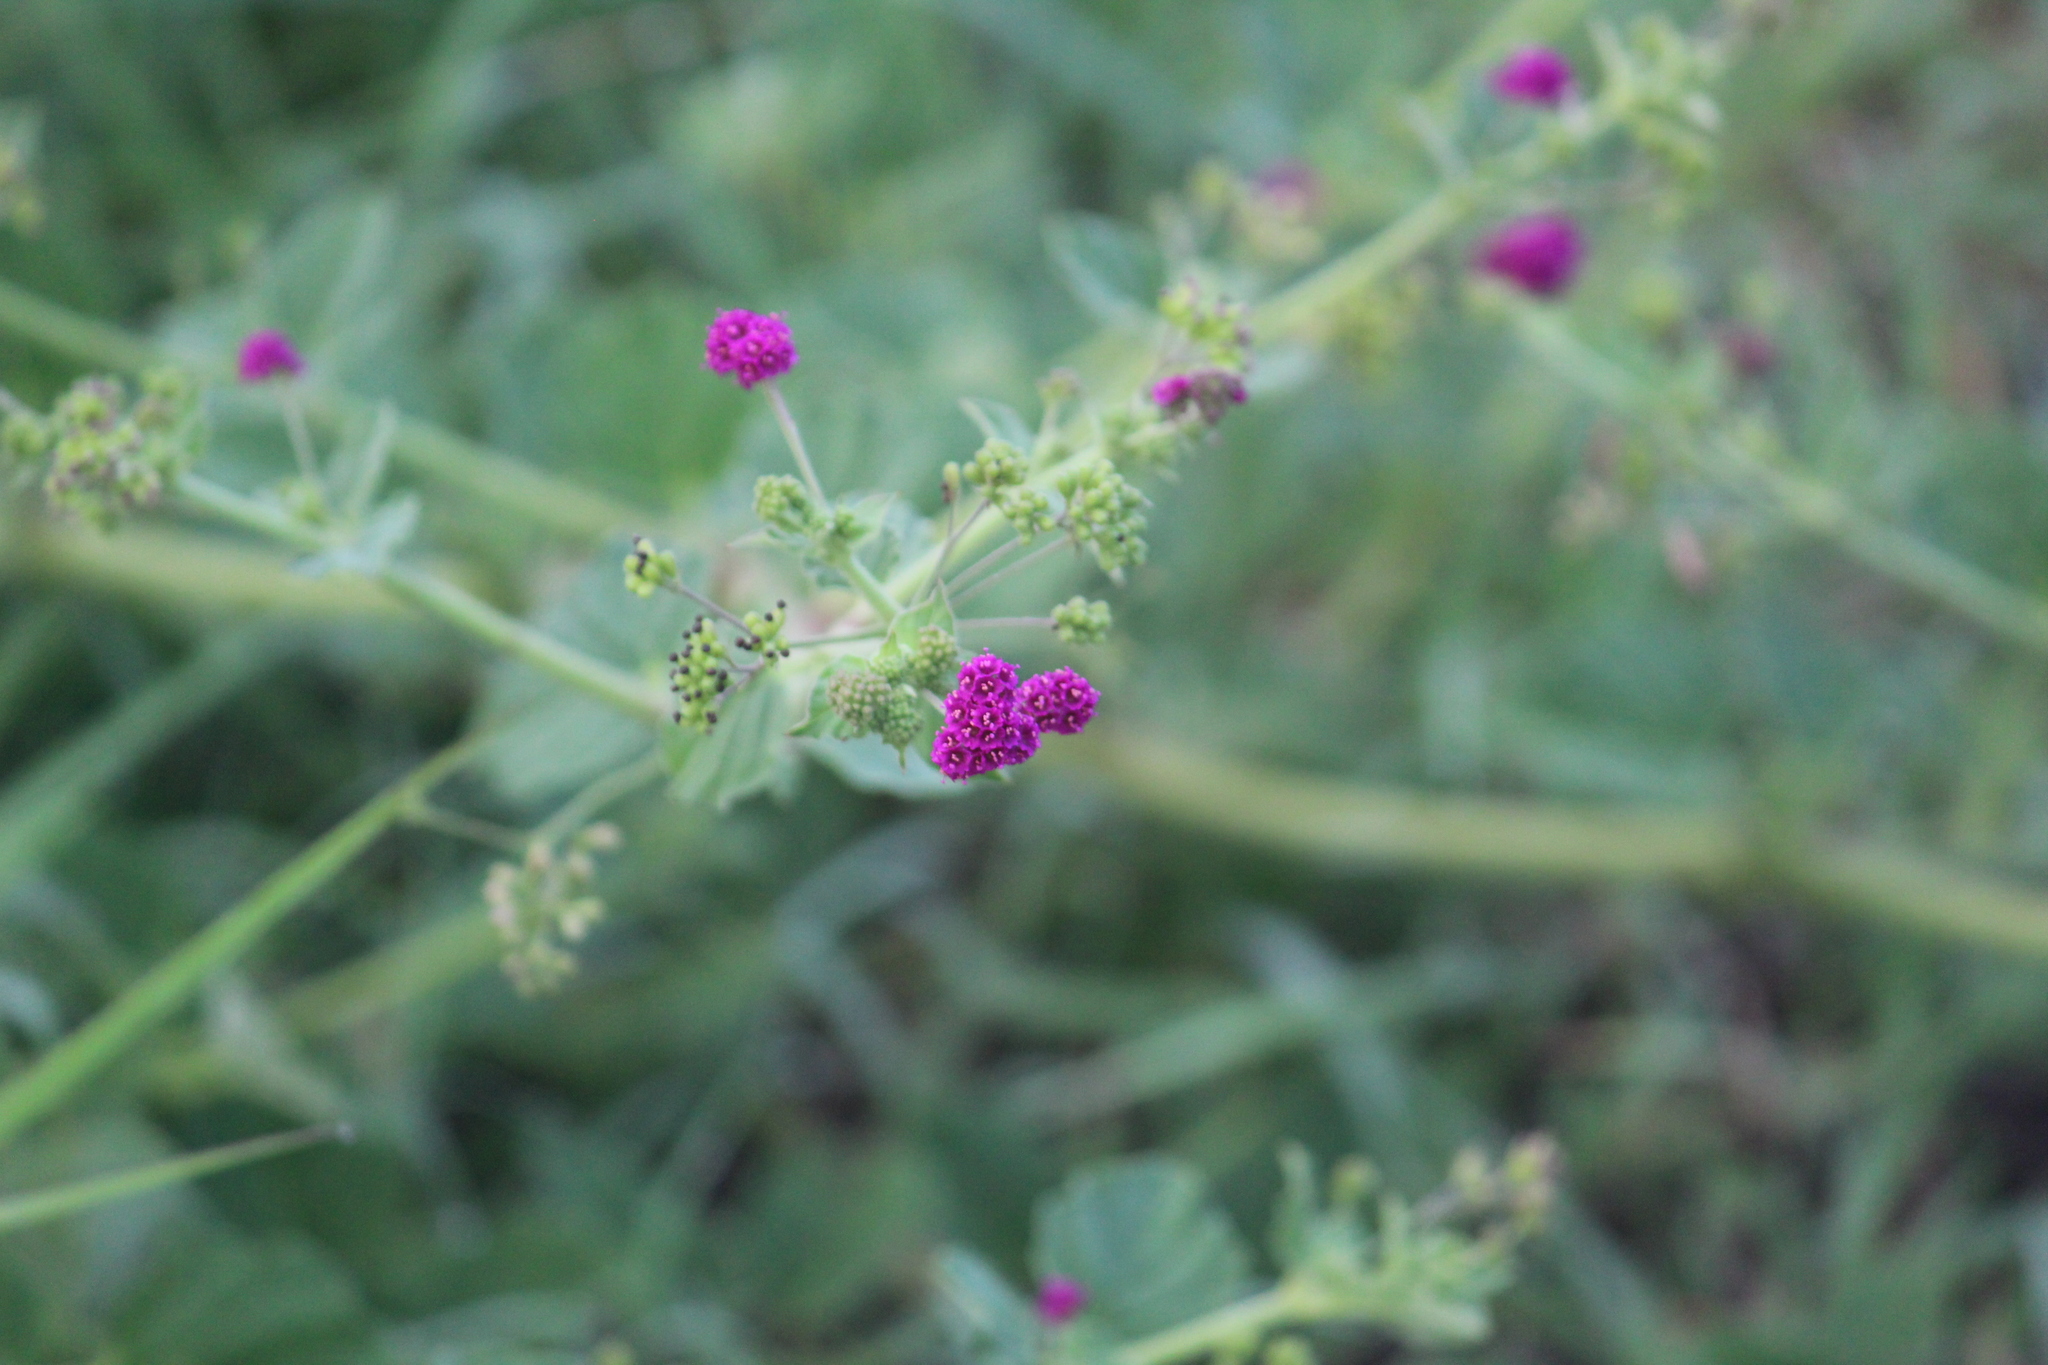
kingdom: Plantae
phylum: Tracheophyta
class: Magnoliopsida
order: Caryophyllales
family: Nyctaginaceae
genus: Boerhavia
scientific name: Boerhavia coccinea
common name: Scarlet spiderling
